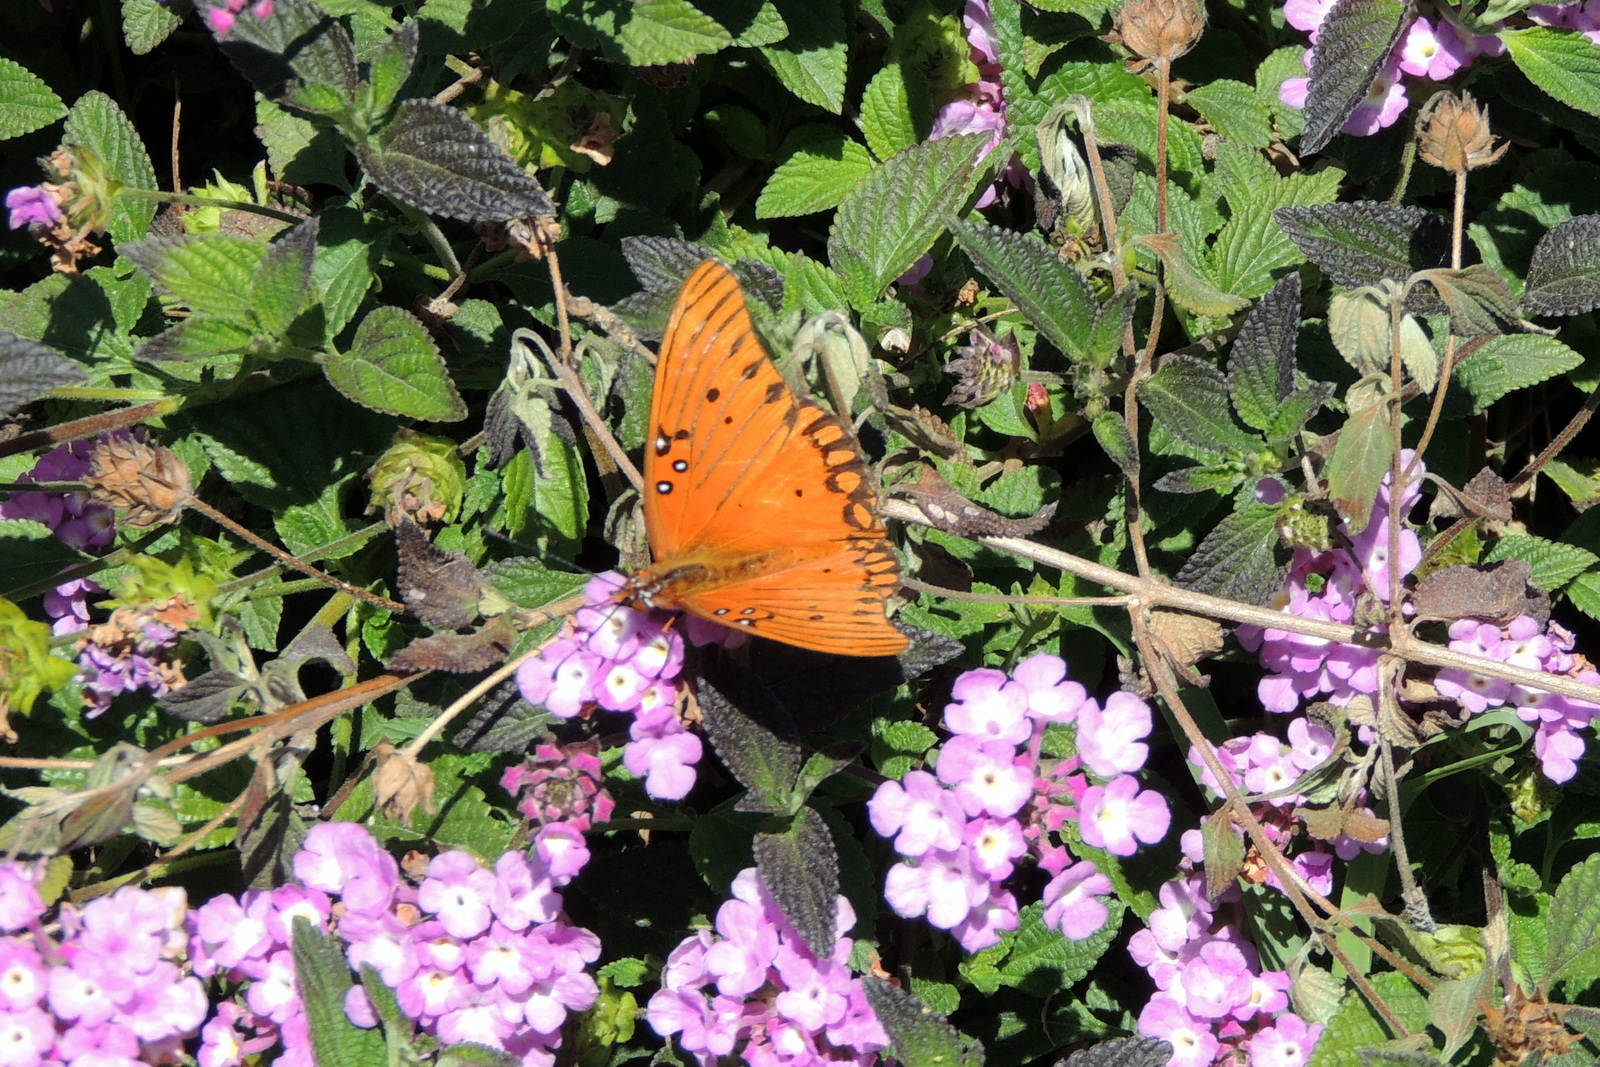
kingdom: Animalia
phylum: Arthropoda
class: Insecta
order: Lepidoptera
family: Nymphalidae
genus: Dione
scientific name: Dione vanillae
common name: Gulf fritillary
